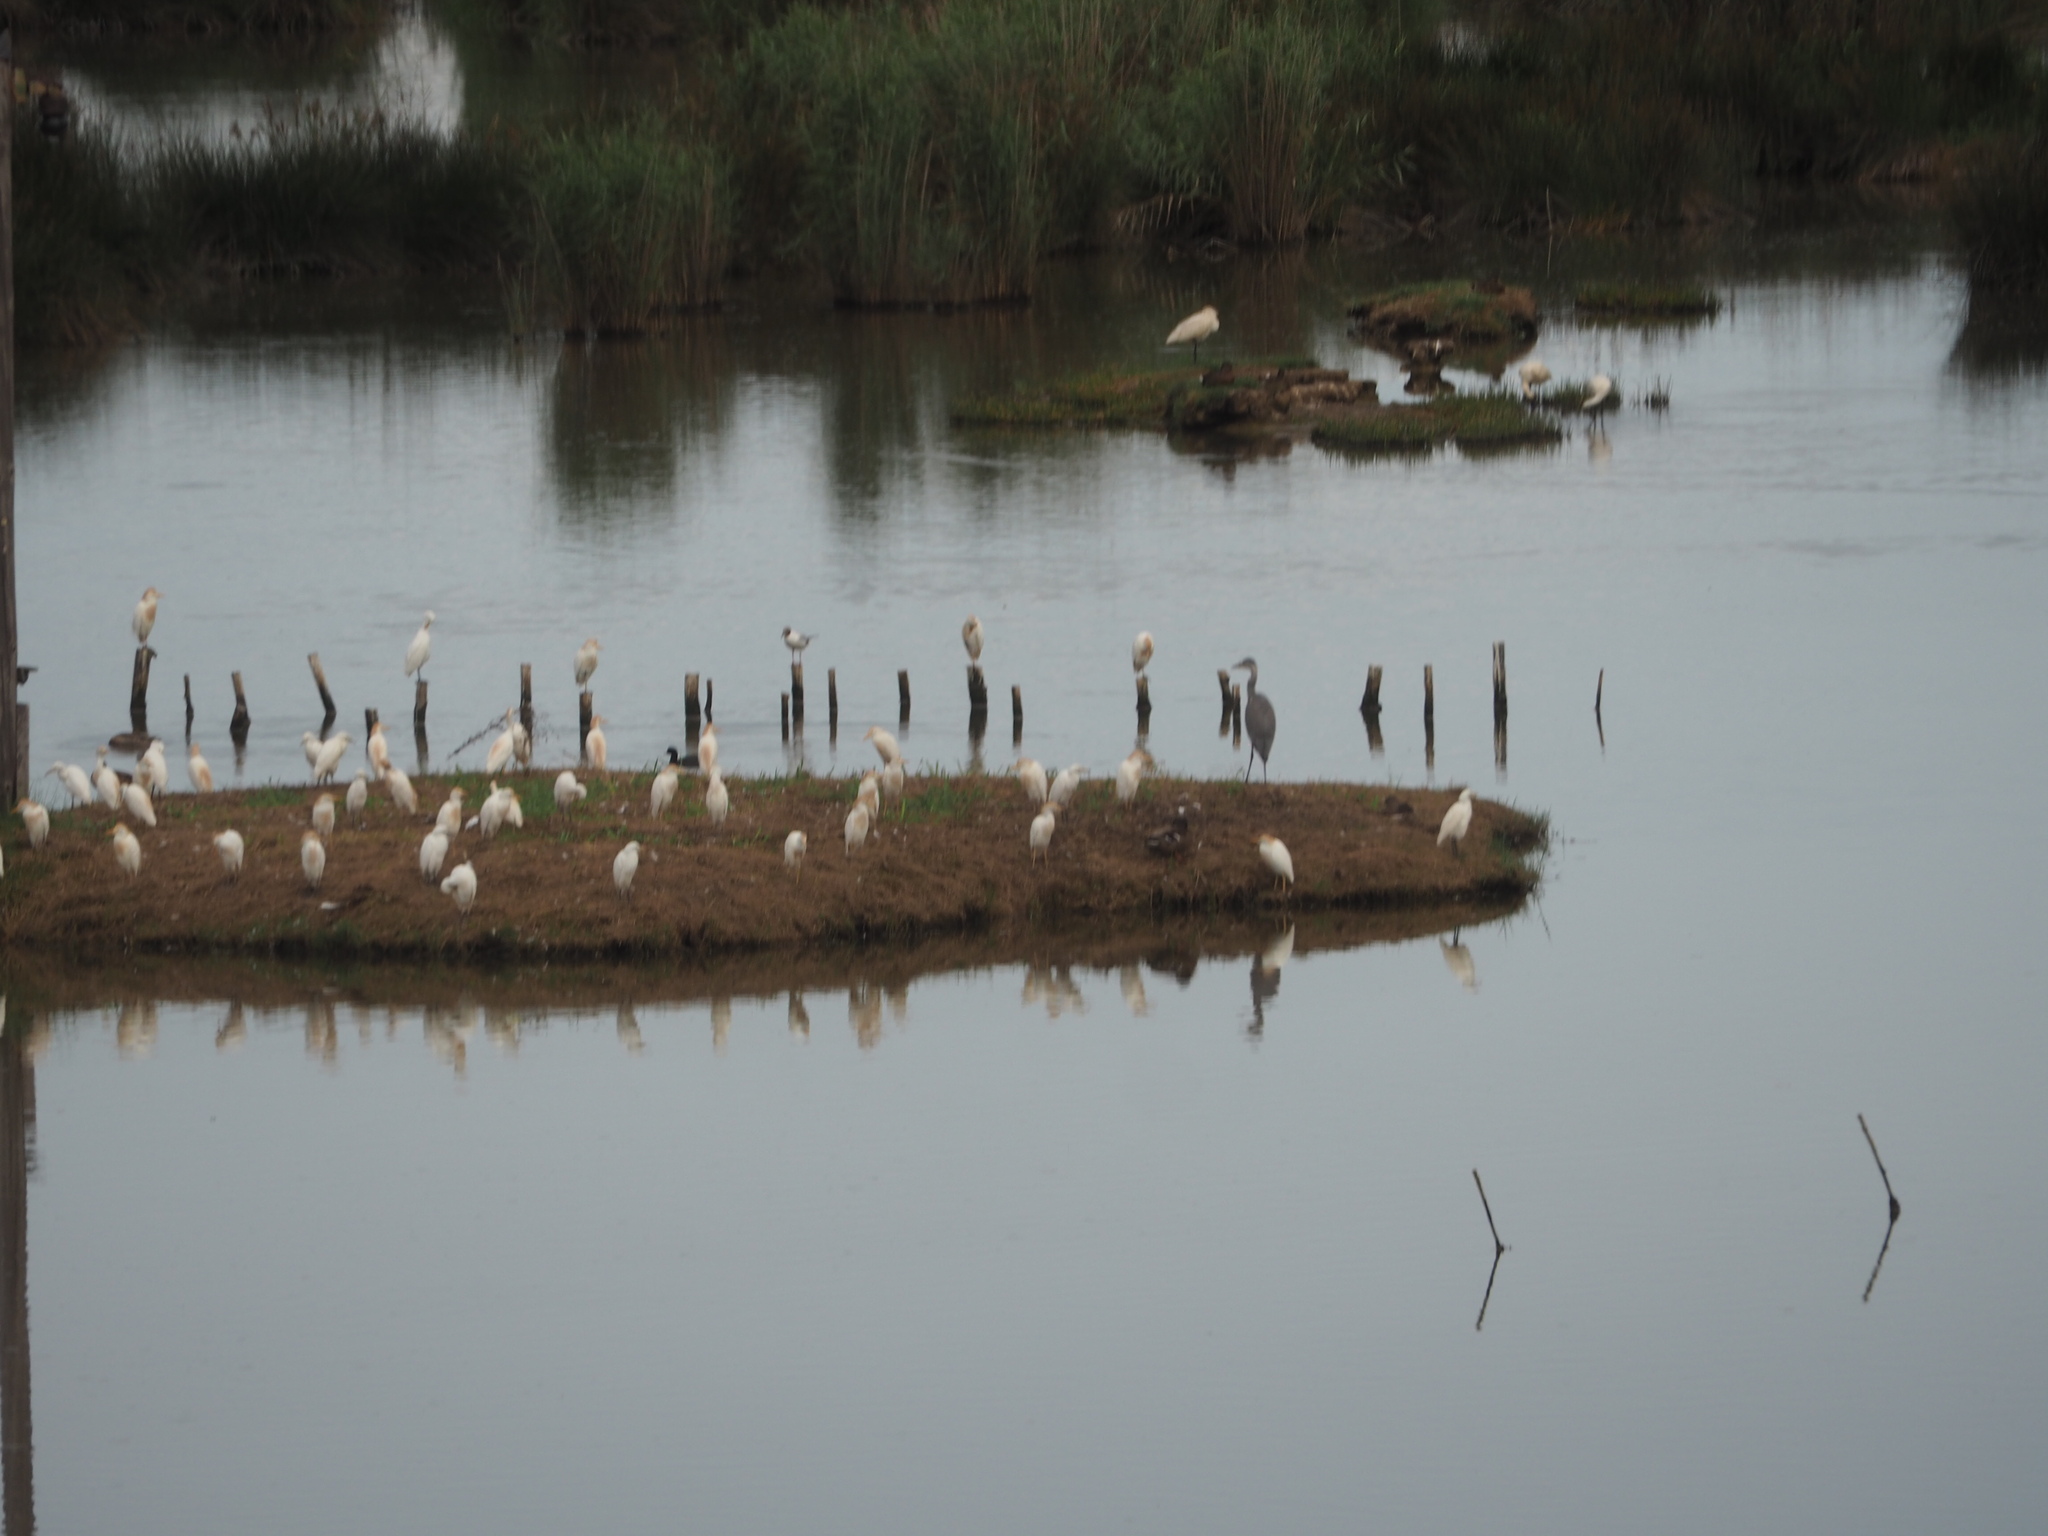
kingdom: Animalia
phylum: Chordata
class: Aves
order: Pelecaniformes
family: Ardeidae
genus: Bubulcus
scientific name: Bubulcus ibis
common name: Cattle egret
